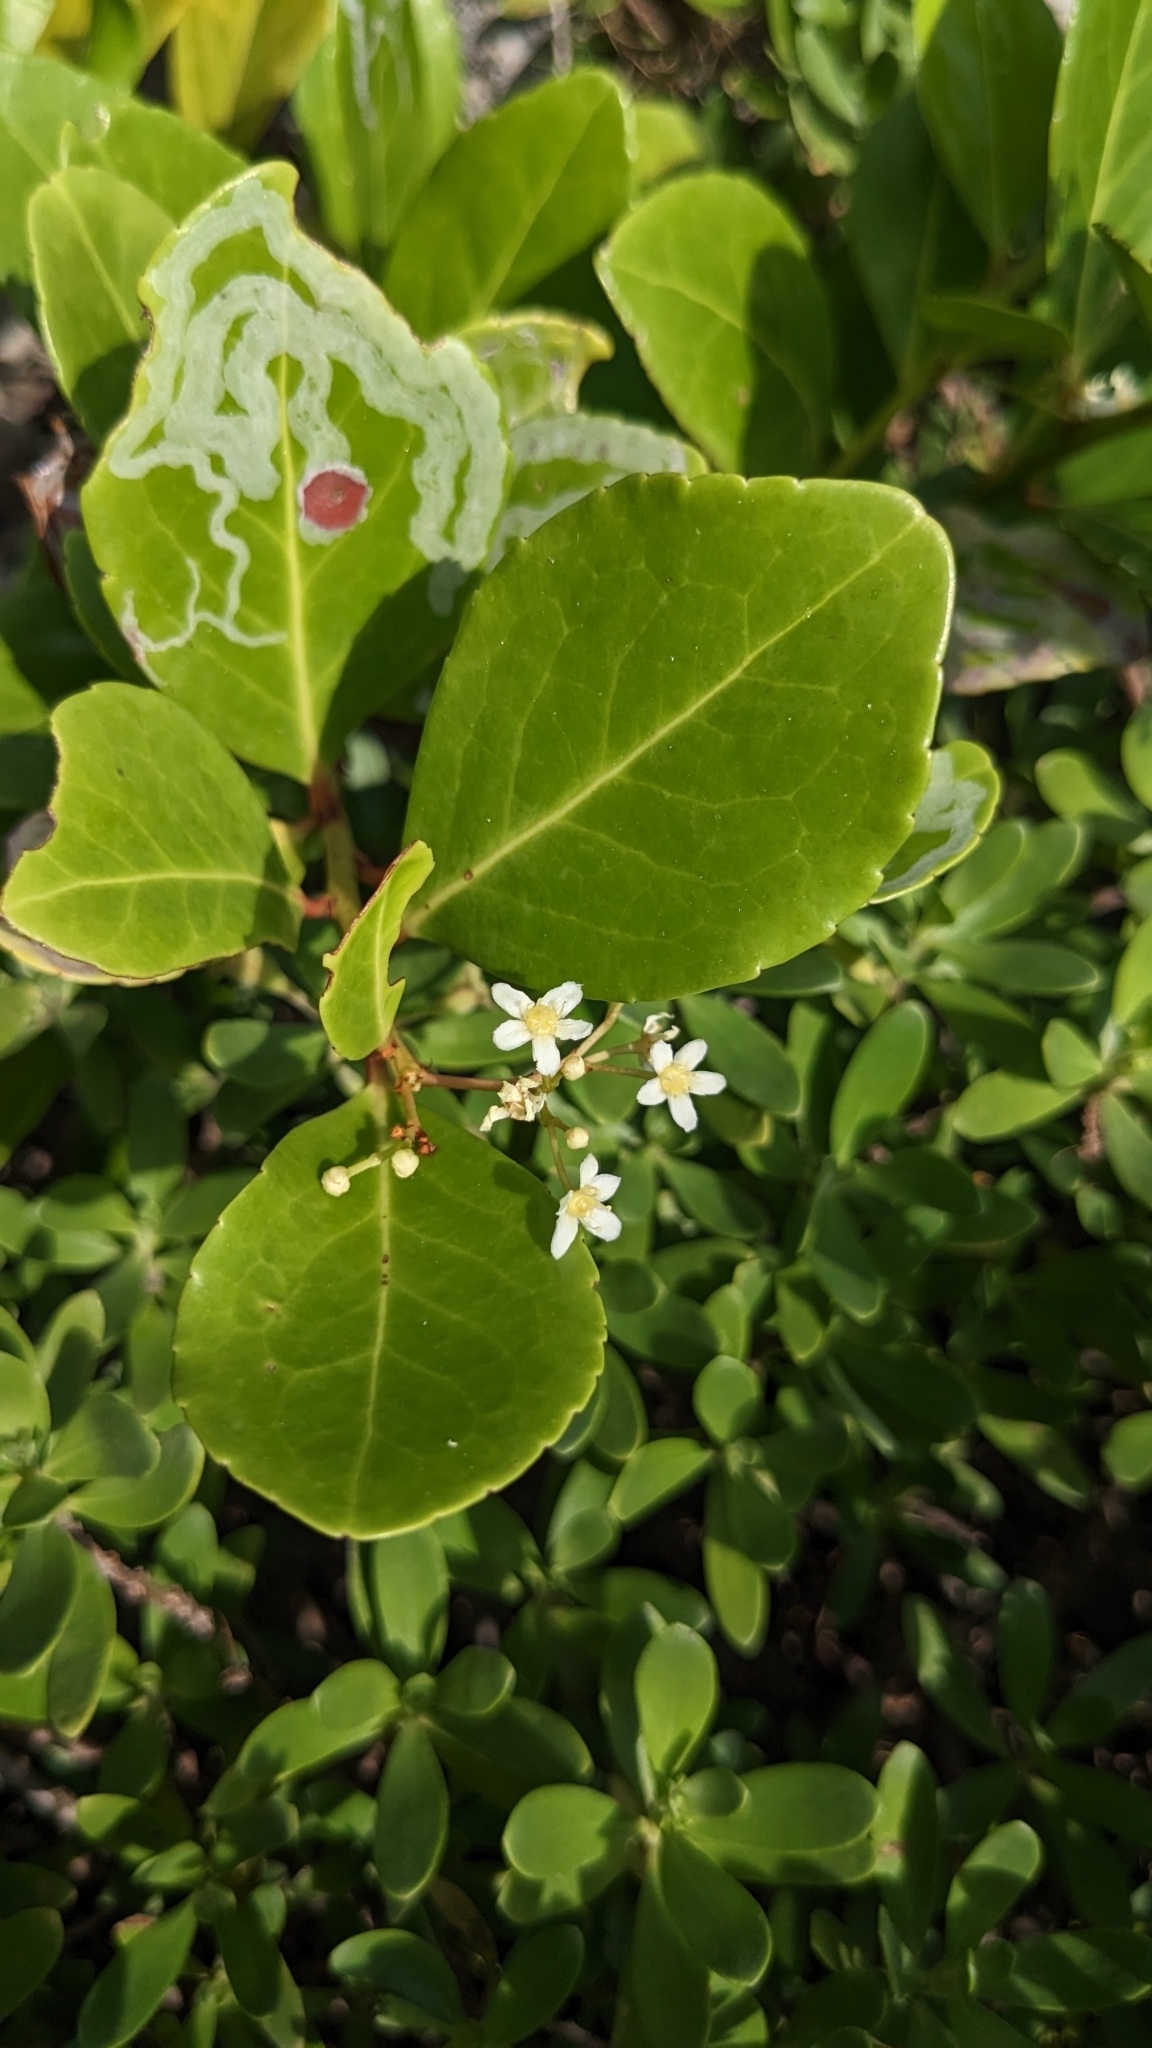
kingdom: Plantae
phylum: Tracheophyta
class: Magnoliopsida
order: Celastrales
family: Celastraceae
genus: Gymnosporia
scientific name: Gymnosporia emarginata
